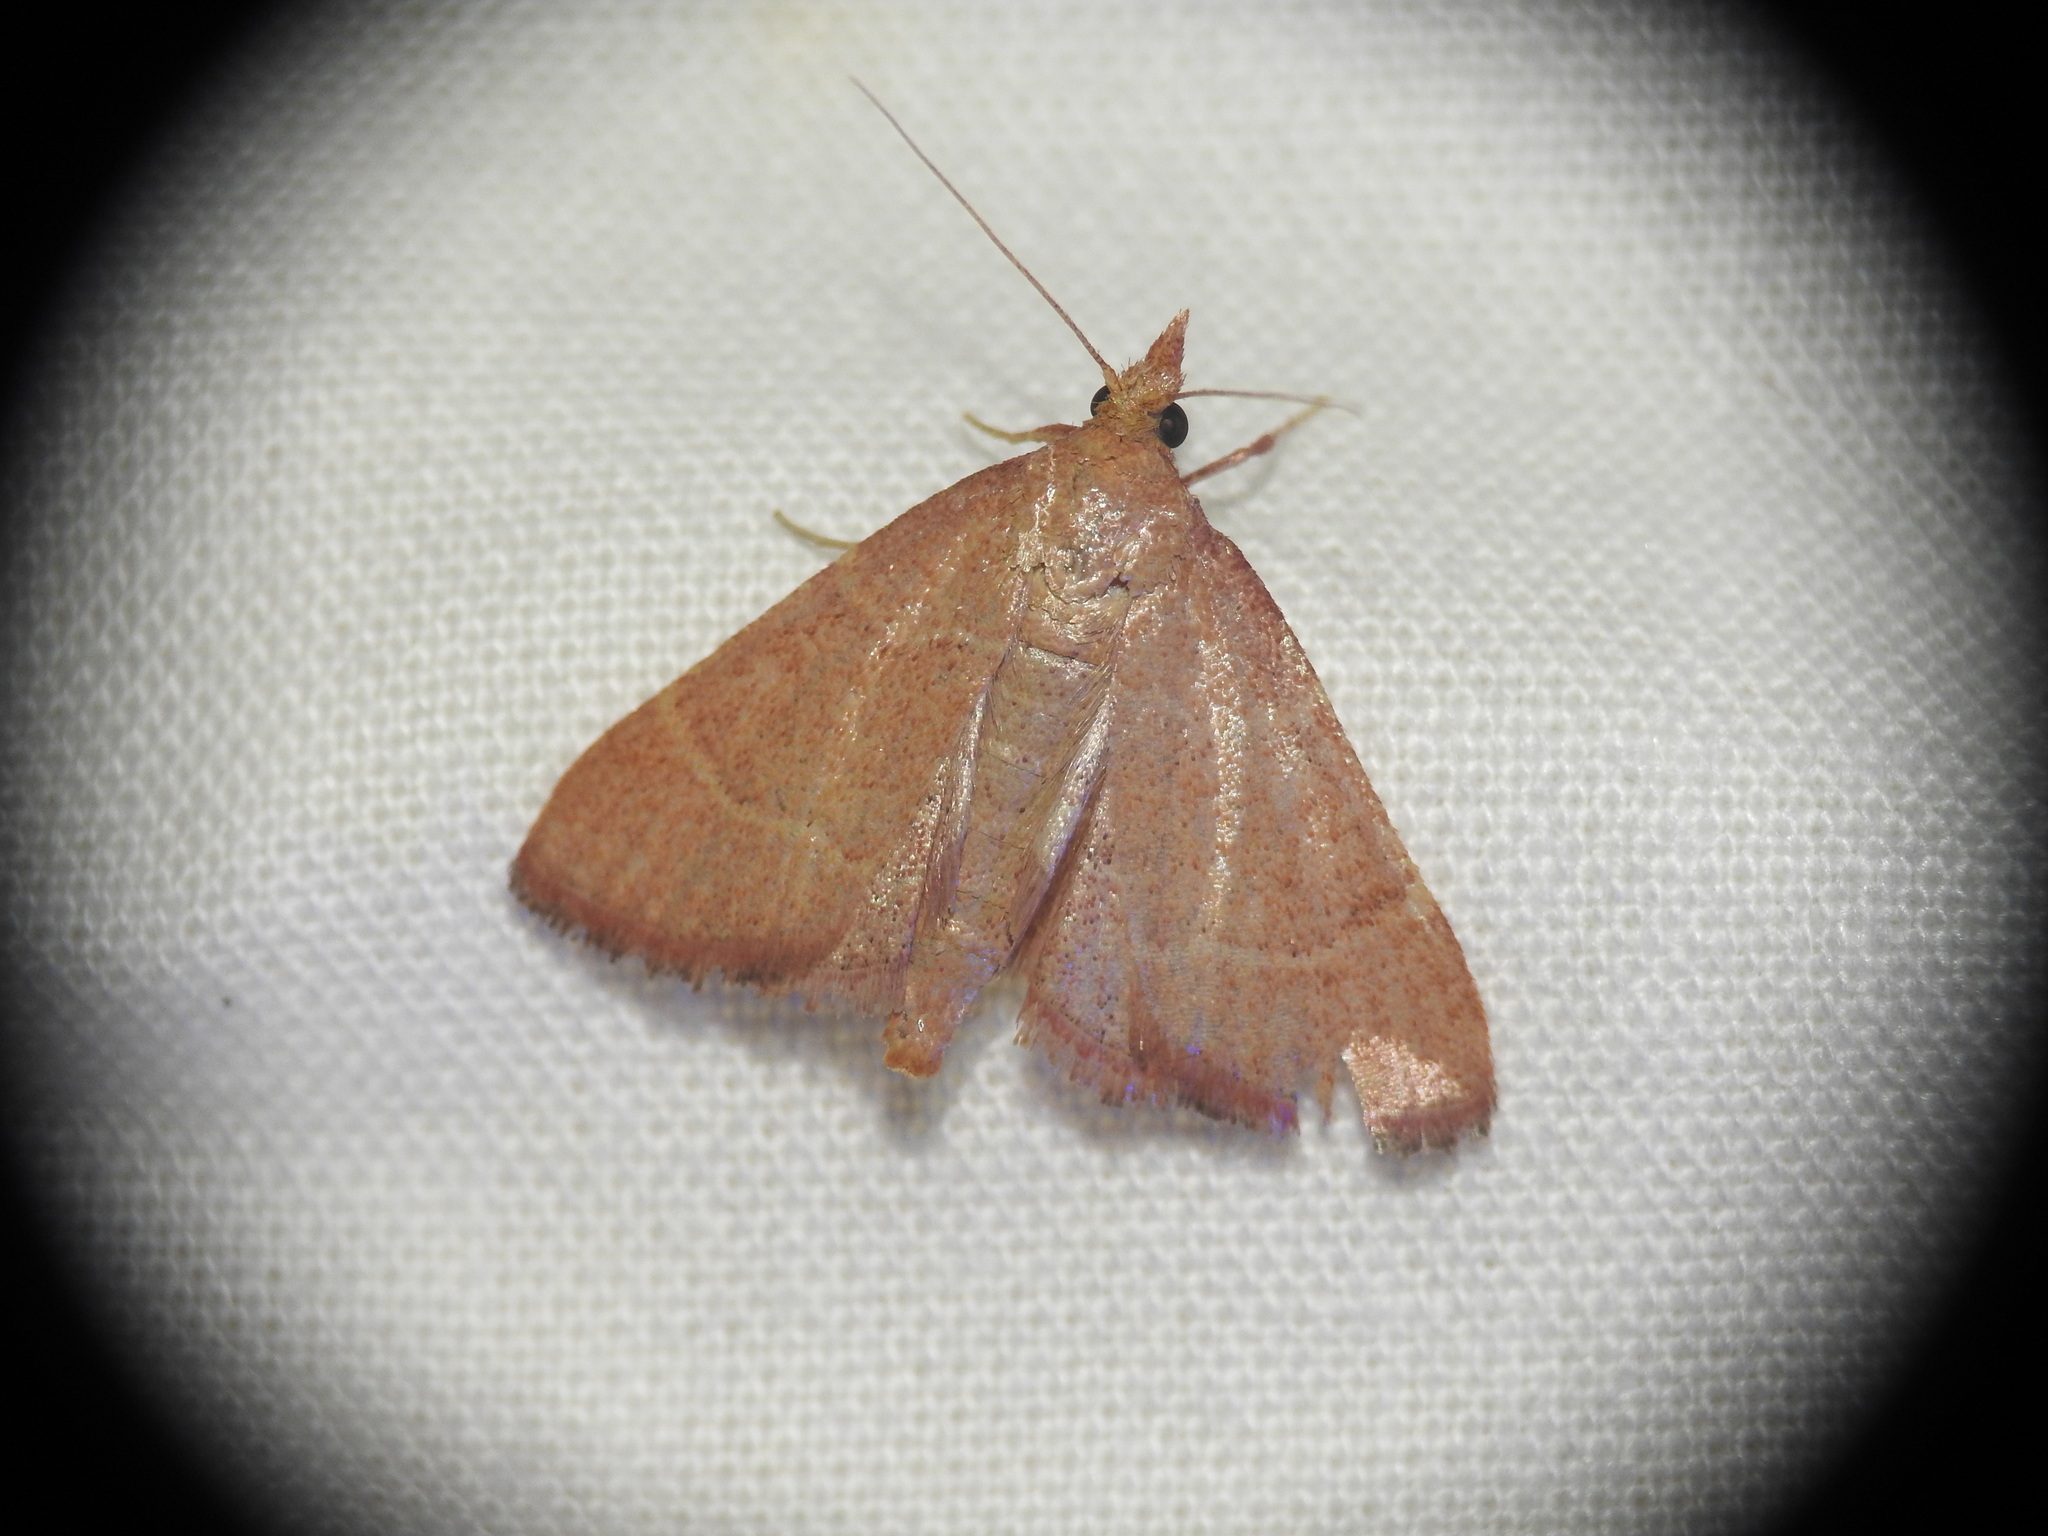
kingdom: Animalia
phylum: Arthropoda
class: Insecta
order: Lepidoptera
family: Pyralidae
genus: Hypsopygia
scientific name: Hypsopygia incarnatalis
